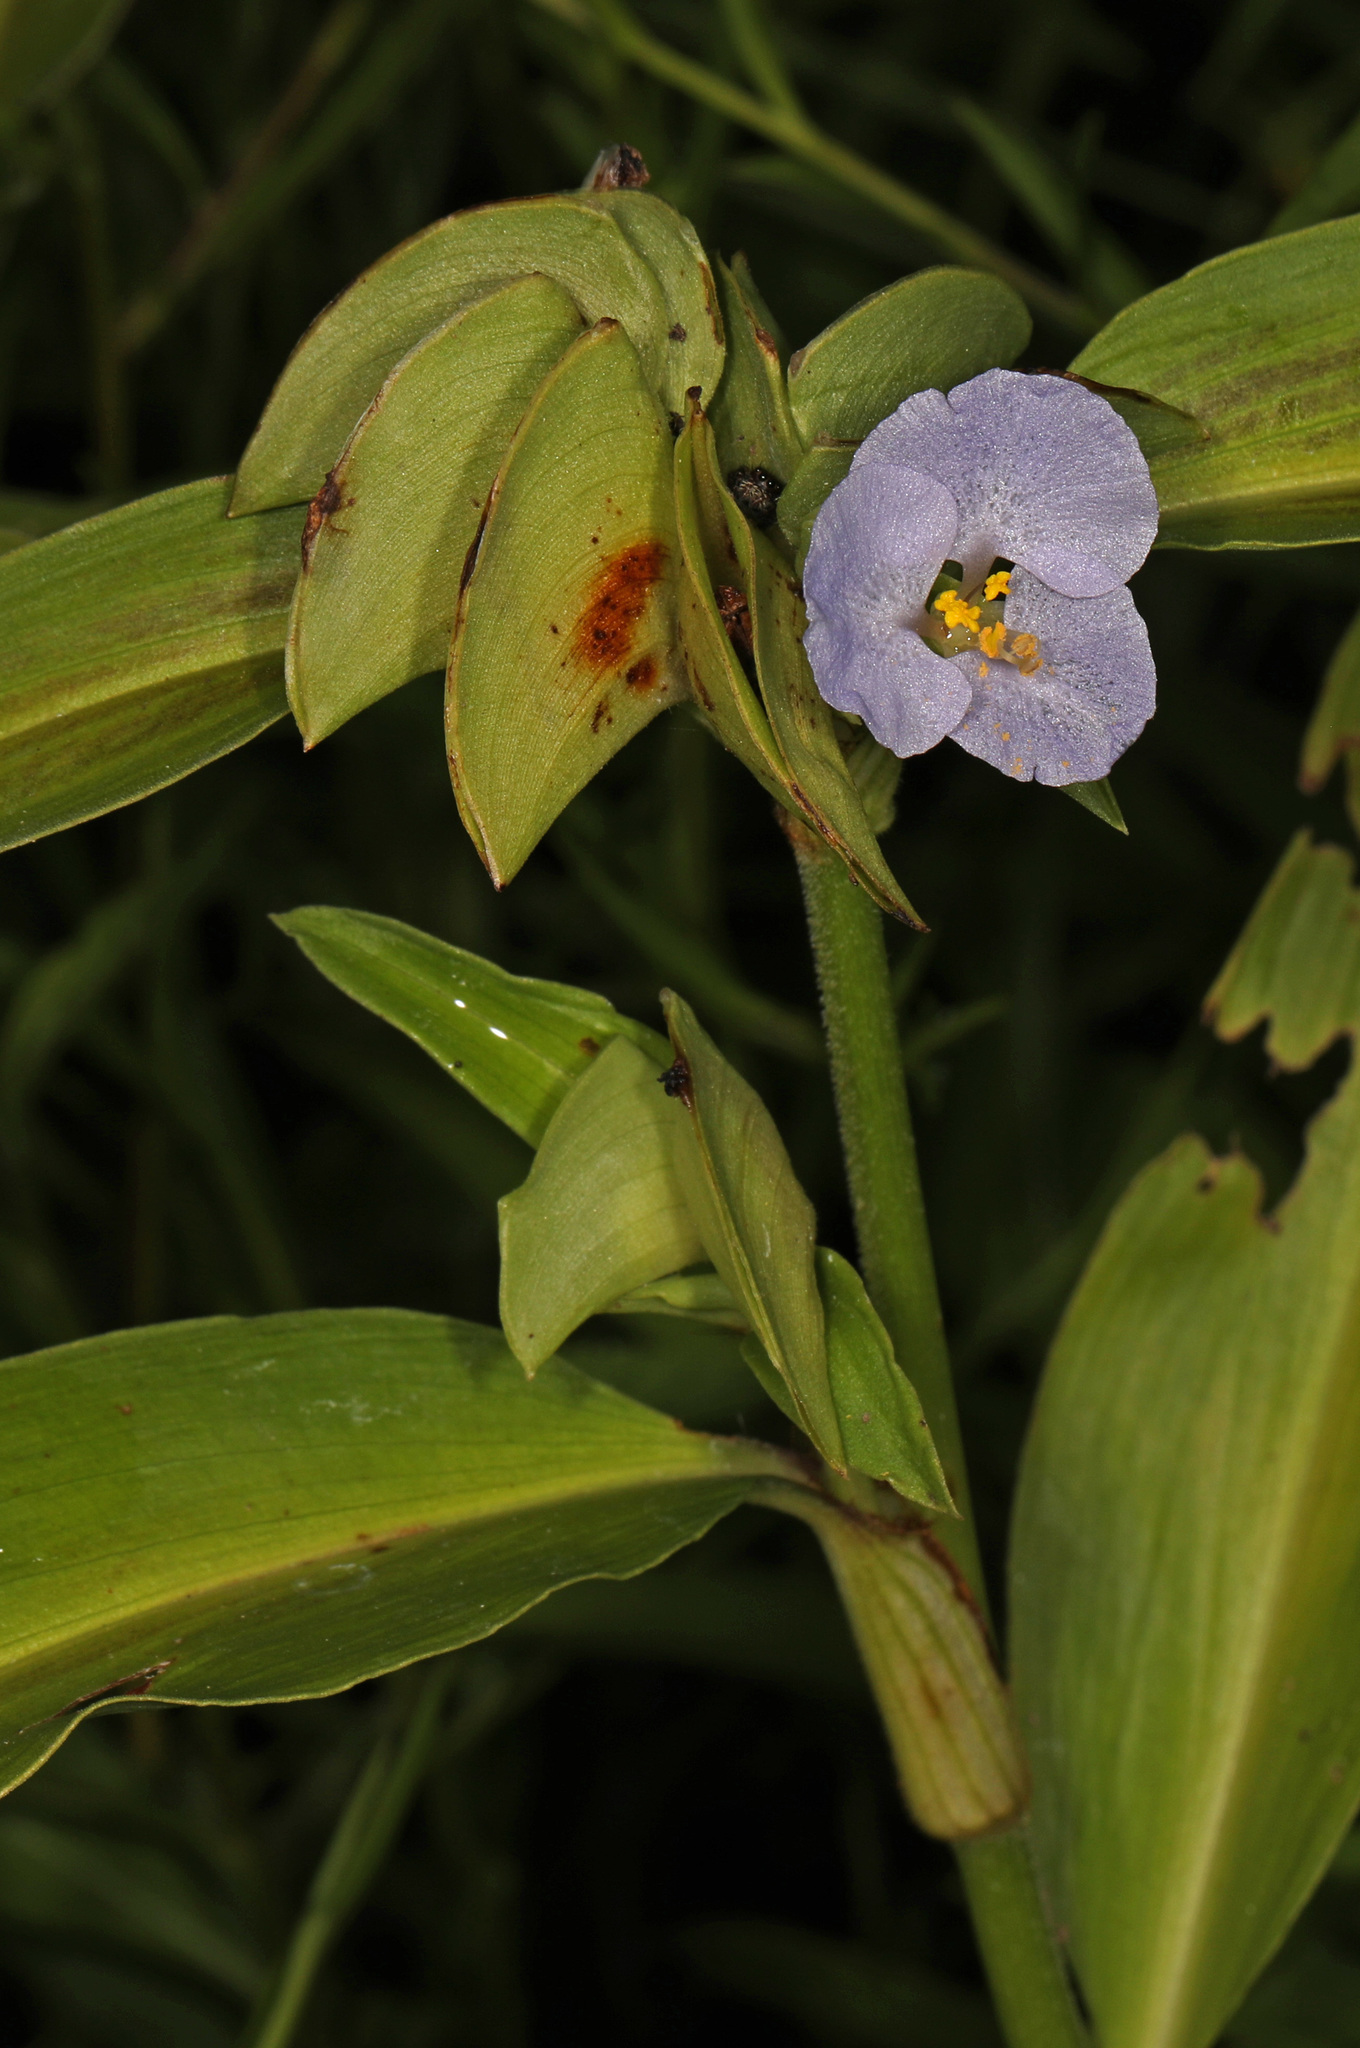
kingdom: Plantae
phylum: Tracheophyta
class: Liliopsida
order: Commelinales
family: Commelinaceae
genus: Commelina
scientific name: Commelina virginica
